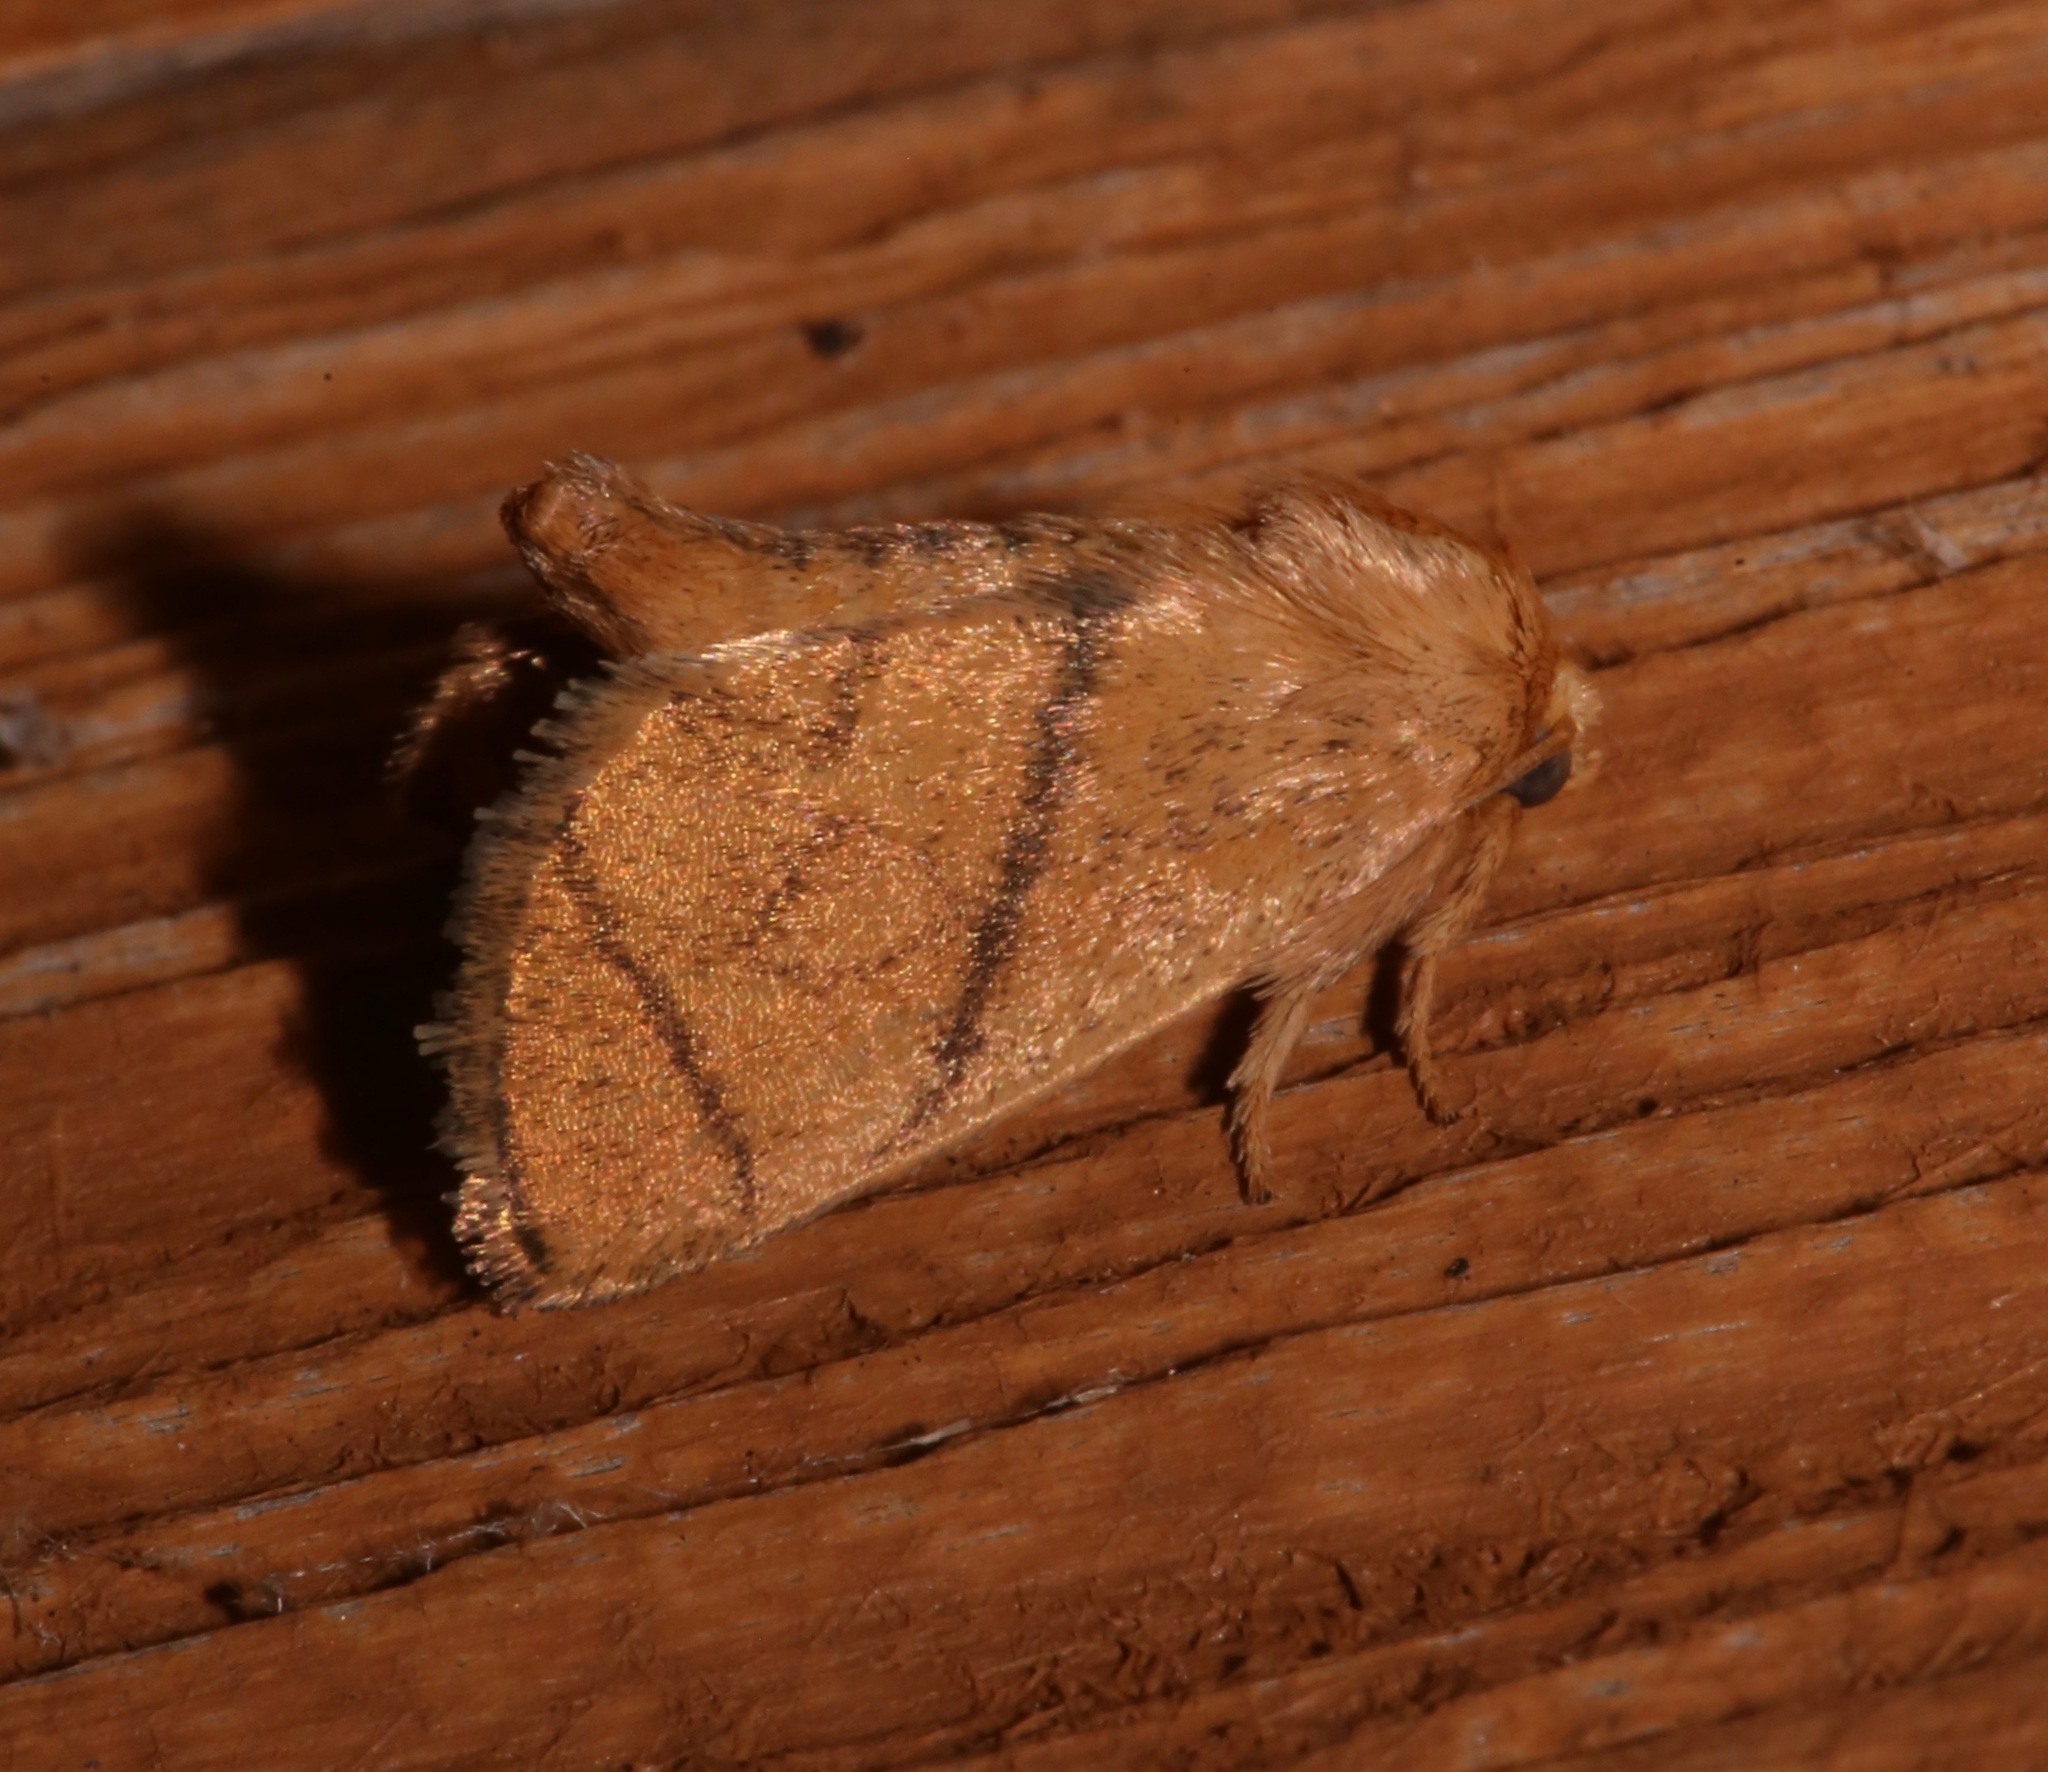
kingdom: Animalia
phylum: Arthropoda
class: Insecta
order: Lepidoptera
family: Limacodidae
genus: Apoda
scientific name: Apoda y-inversa
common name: Yellow-collared slug moth
